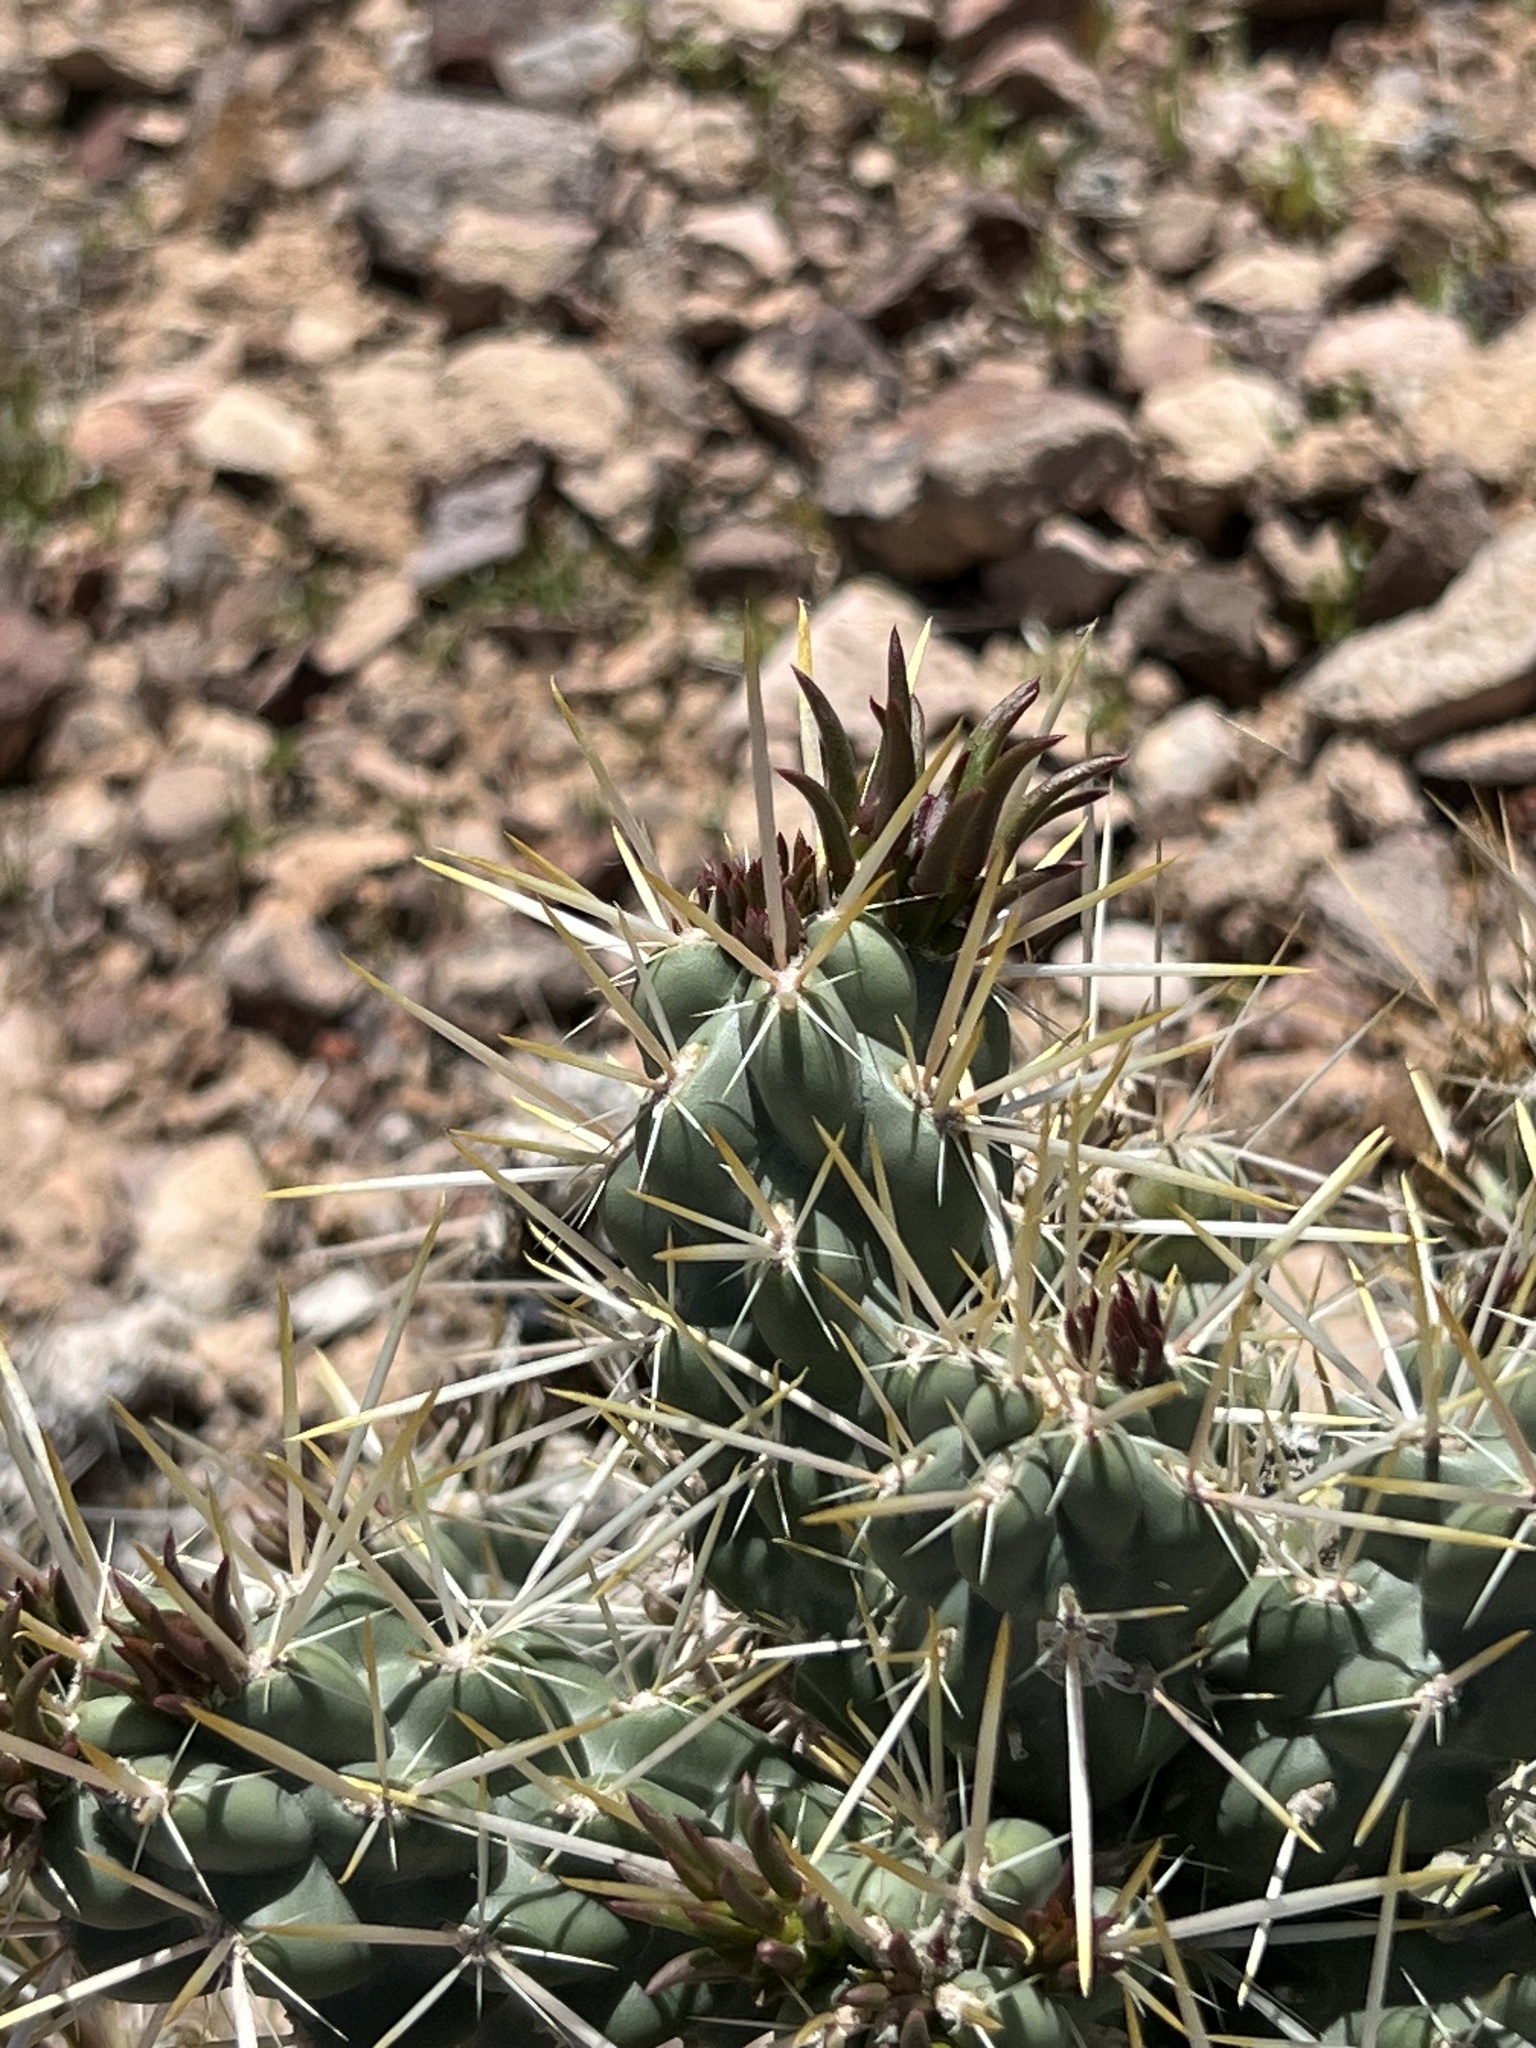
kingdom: Plantae
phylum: Tracheophyta
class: Magnoliopsida
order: Caryophyllales
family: Cactaceae
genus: Cylindropuntia
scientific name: Cylindropuntia echinocarpa
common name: Ground cholla
